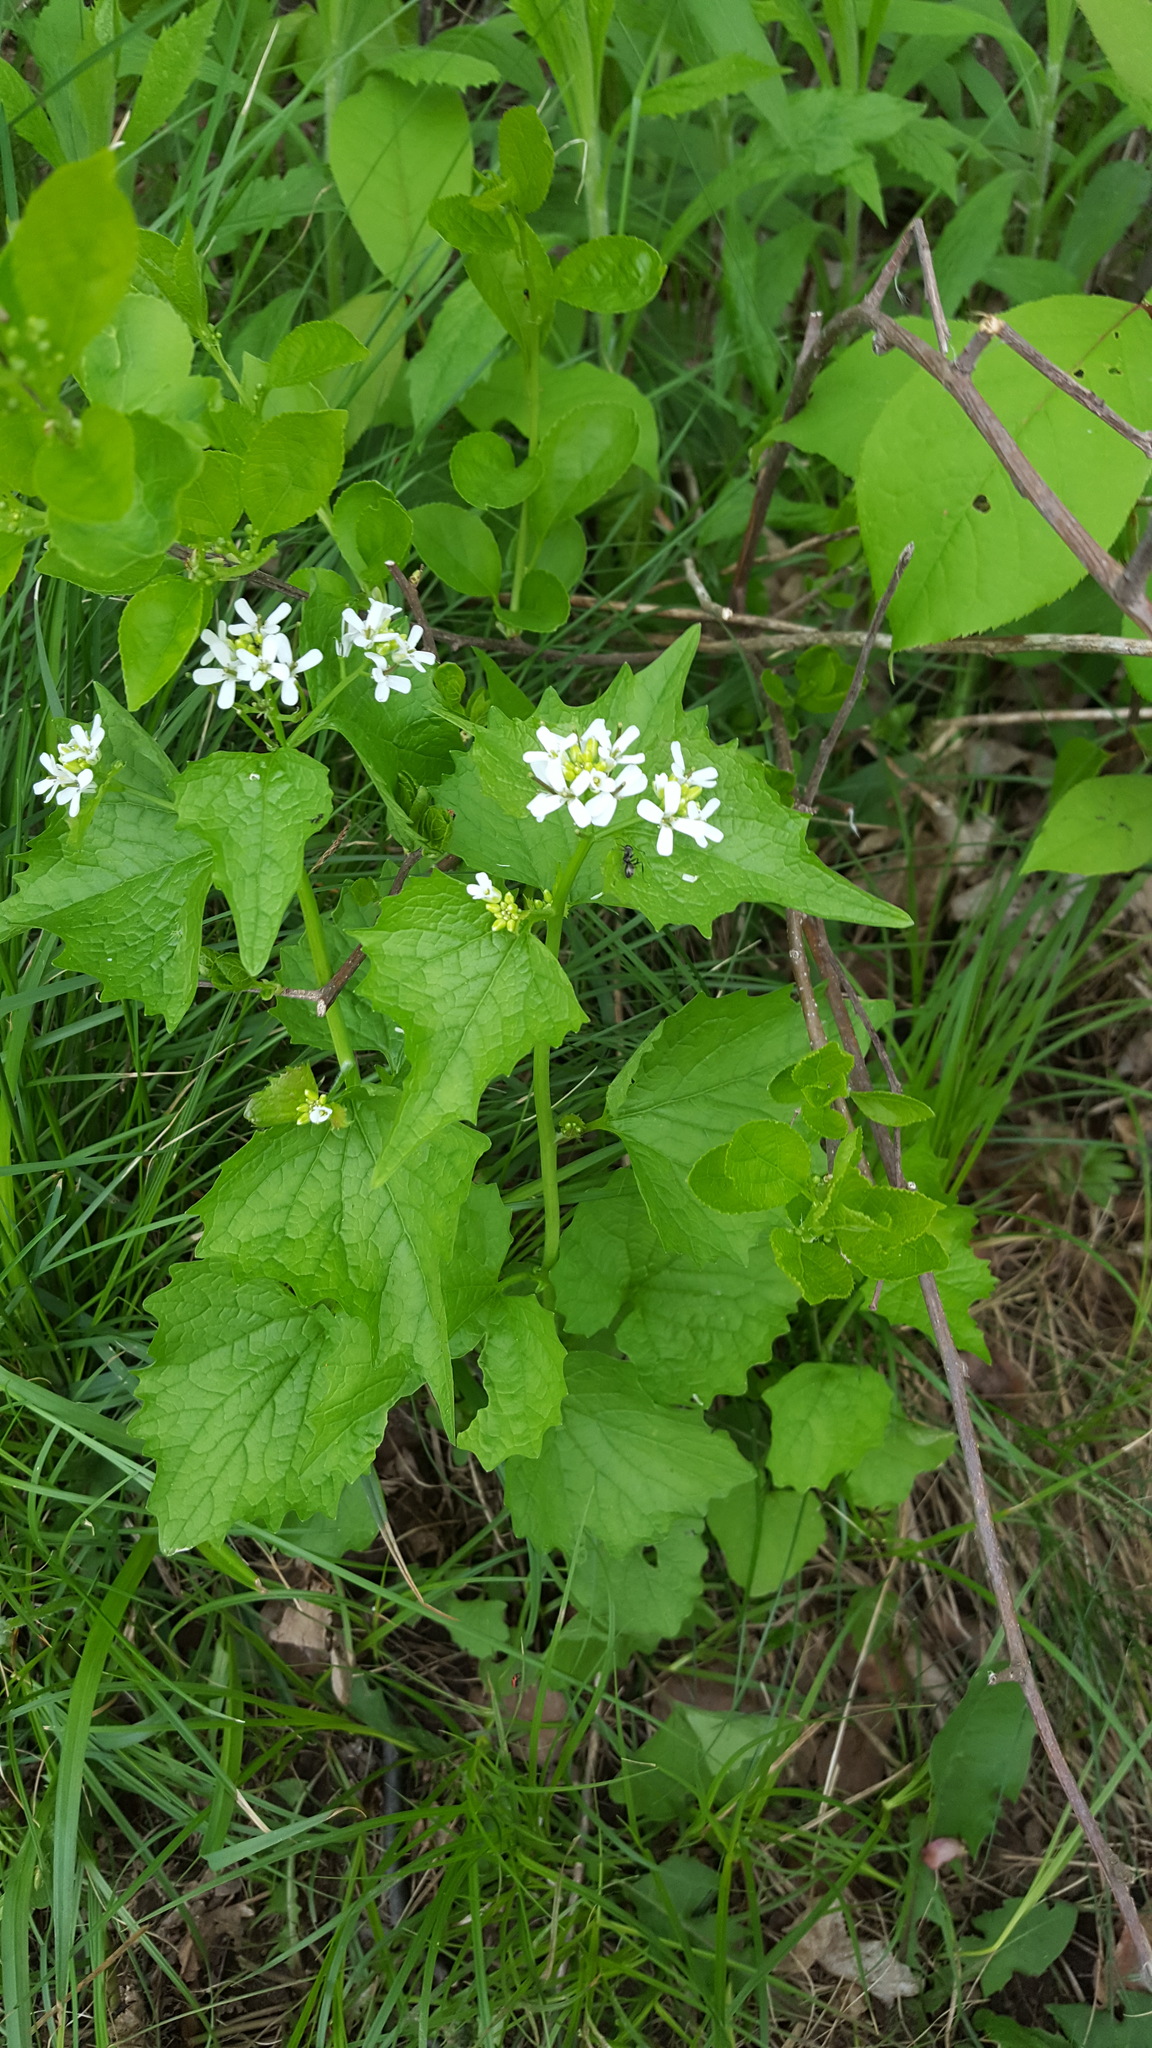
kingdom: Plantae
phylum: Tracheophyta
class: Magnoliopsida
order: Brassicales
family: Brassicaceae
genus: Alliaria
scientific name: Alliaria petiolata
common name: Garlic mustard
